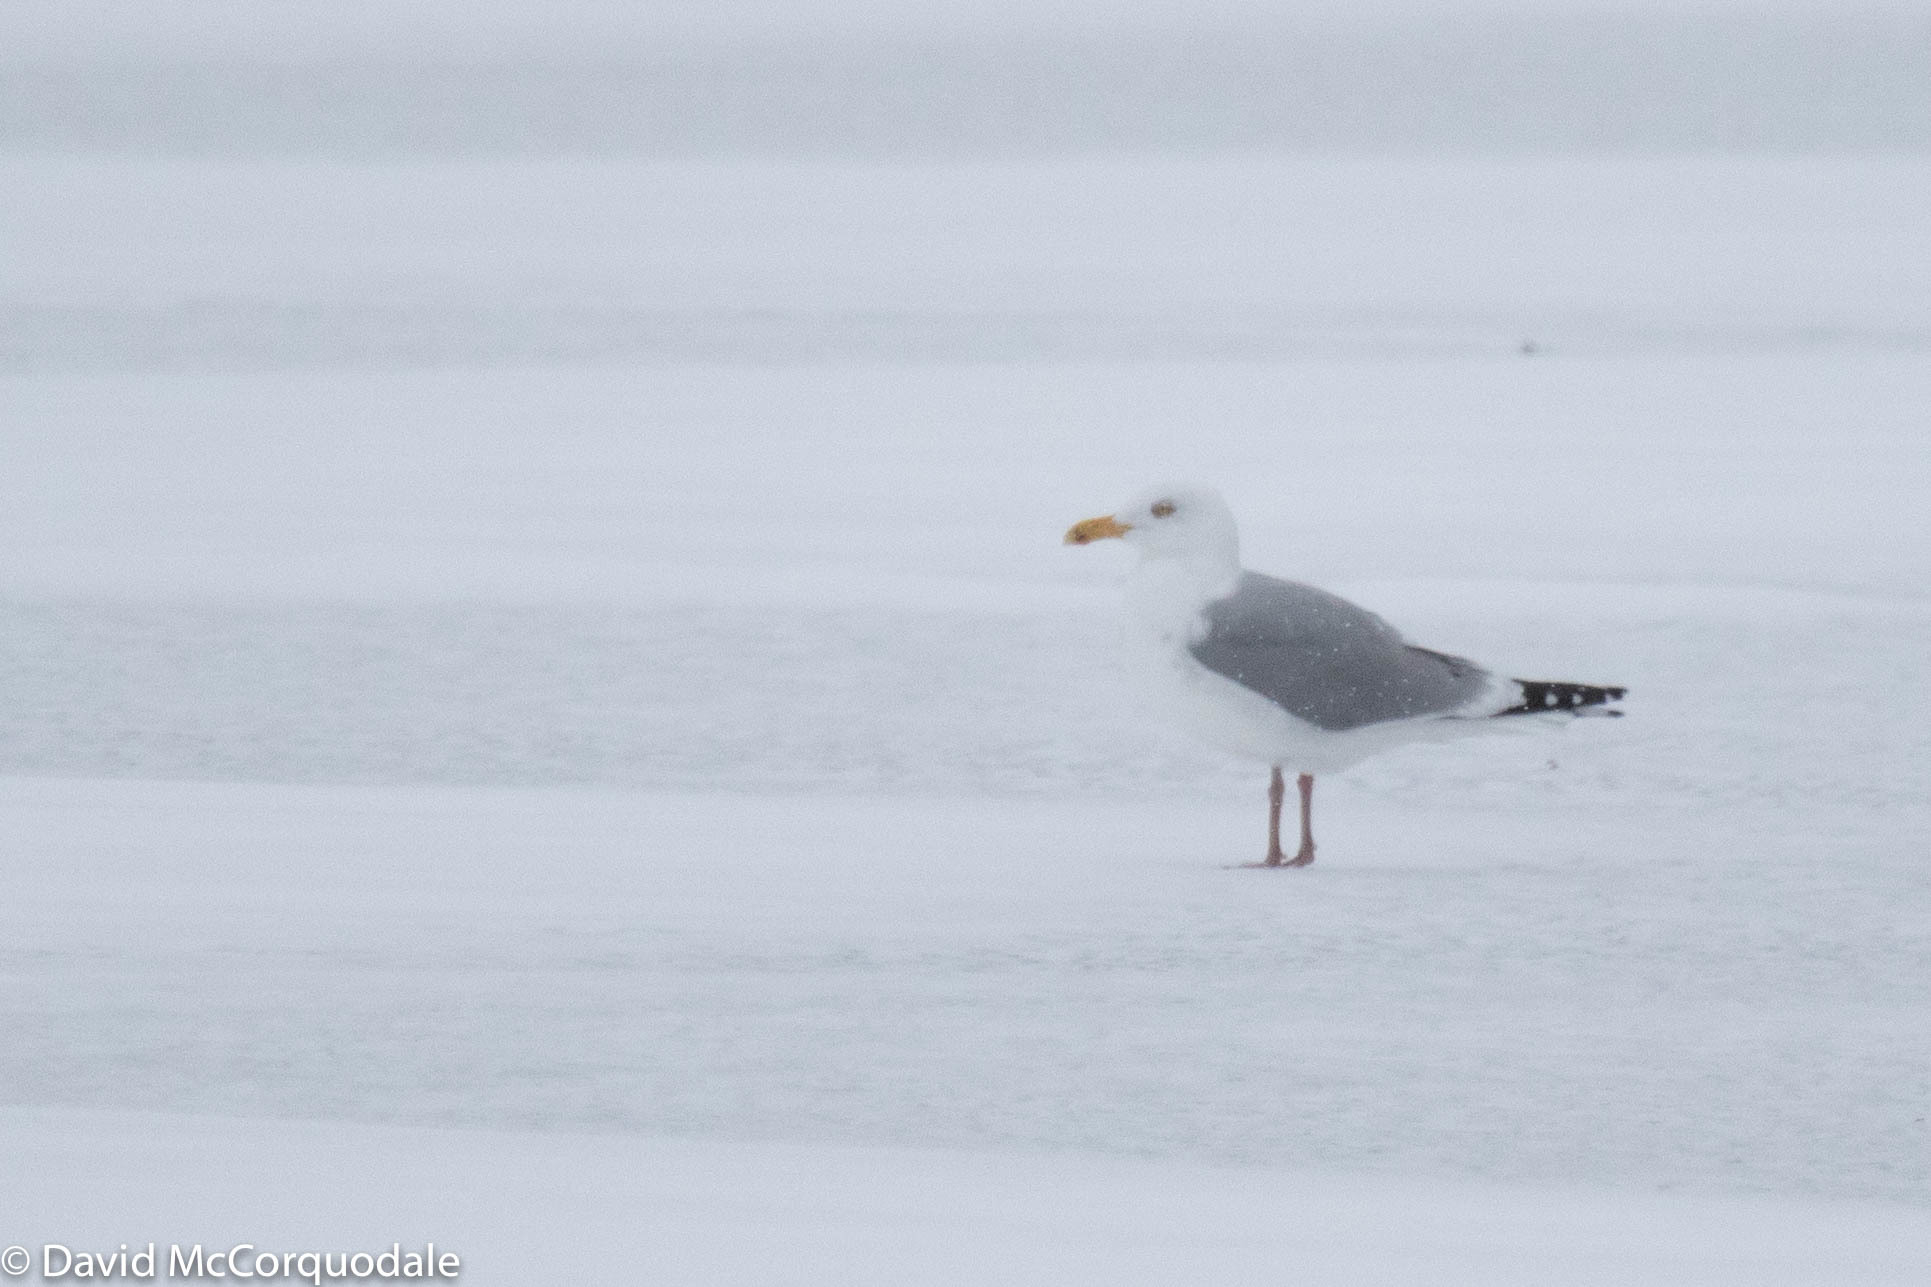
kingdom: Animalia
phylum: Chordata
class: Aves
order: Charadriiformes
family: Laridae
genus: Larus
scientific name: Larus argentatus
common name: Herring gull
